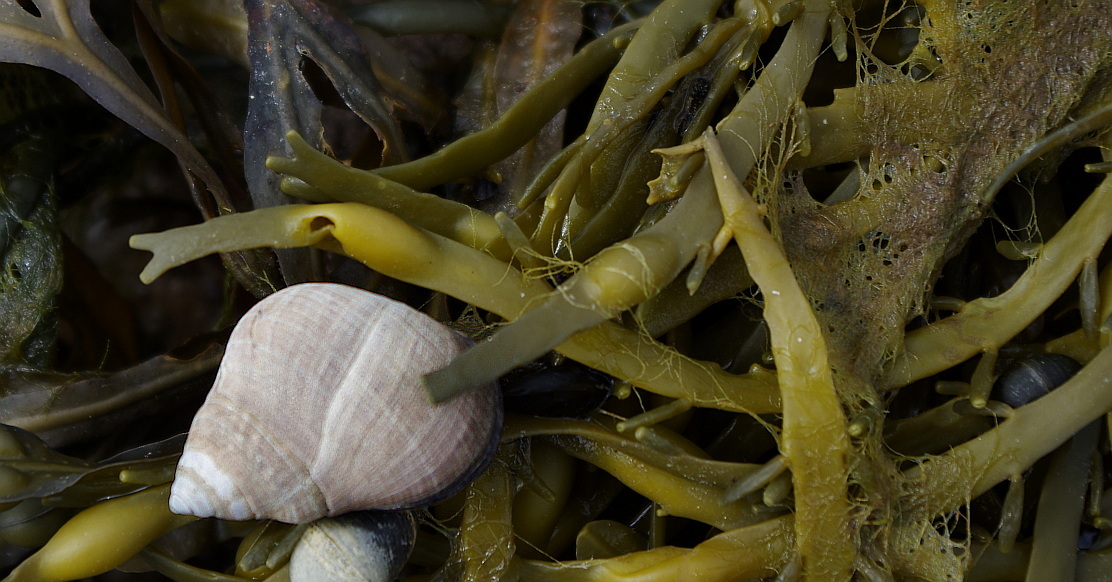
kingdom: Chromista
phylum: Ochrophyta
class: Phaeophyceae
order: Fucales
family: Fucaceae
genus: Ascophyllum
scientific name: Ascophyllum nodosum
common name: Knotted wrack
